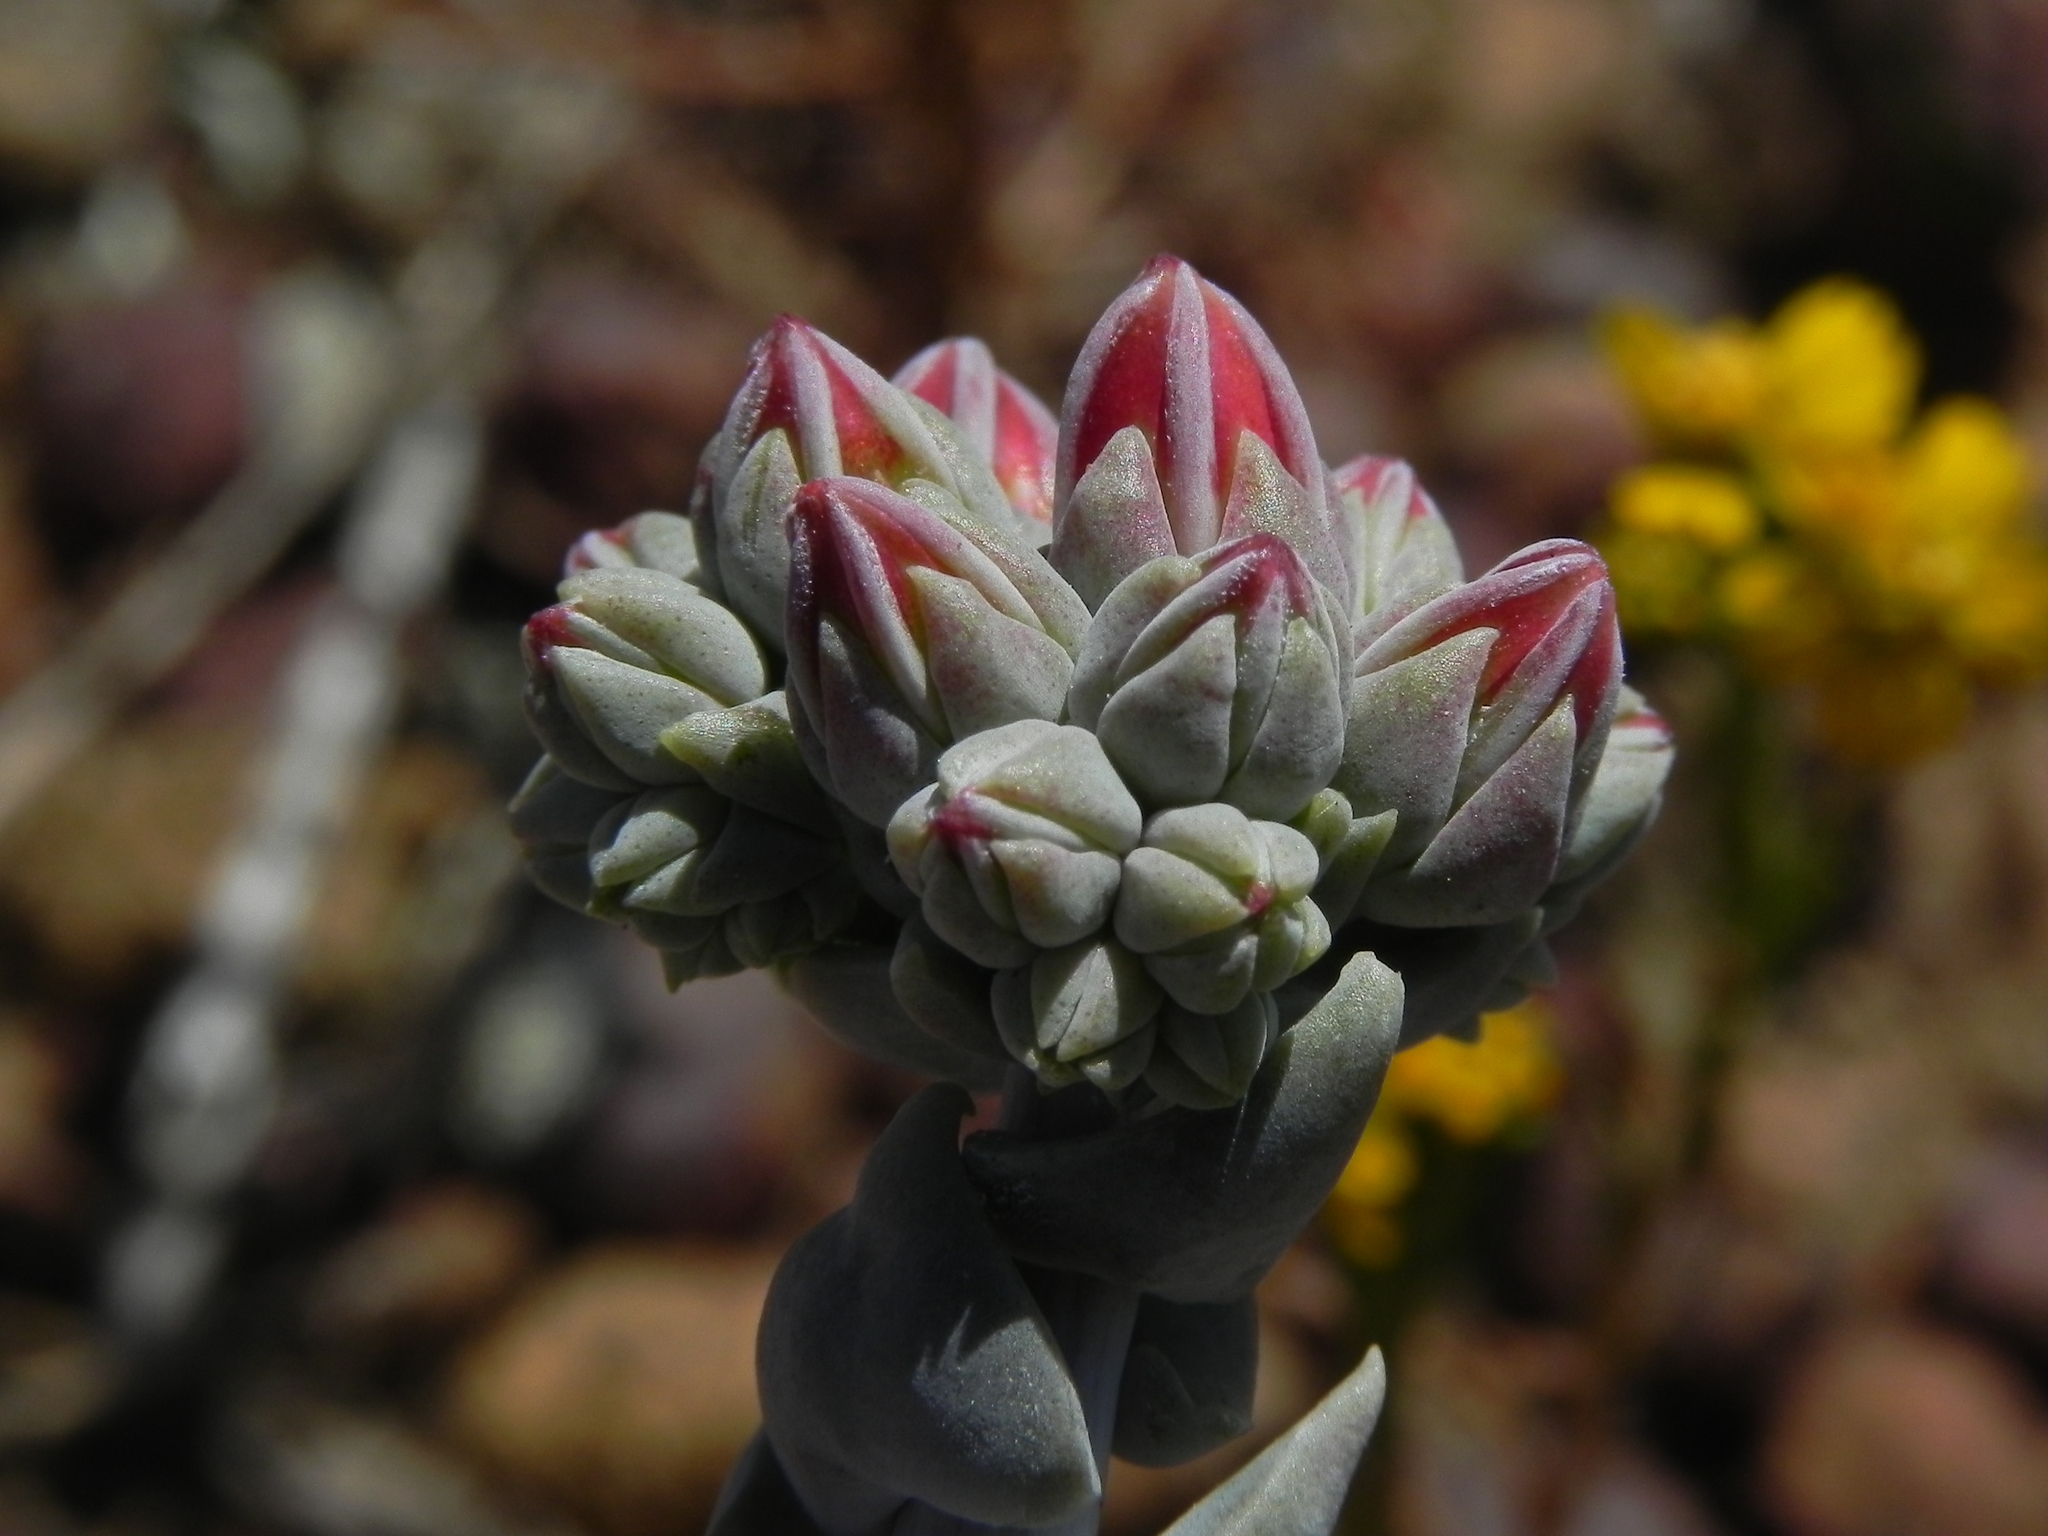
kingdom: Plantae
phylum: Tracheophyta
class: Magnoliopsida
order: Saxifragales
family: Crassulaceae
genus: Dudleya
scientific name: Dudleya lanceolata
